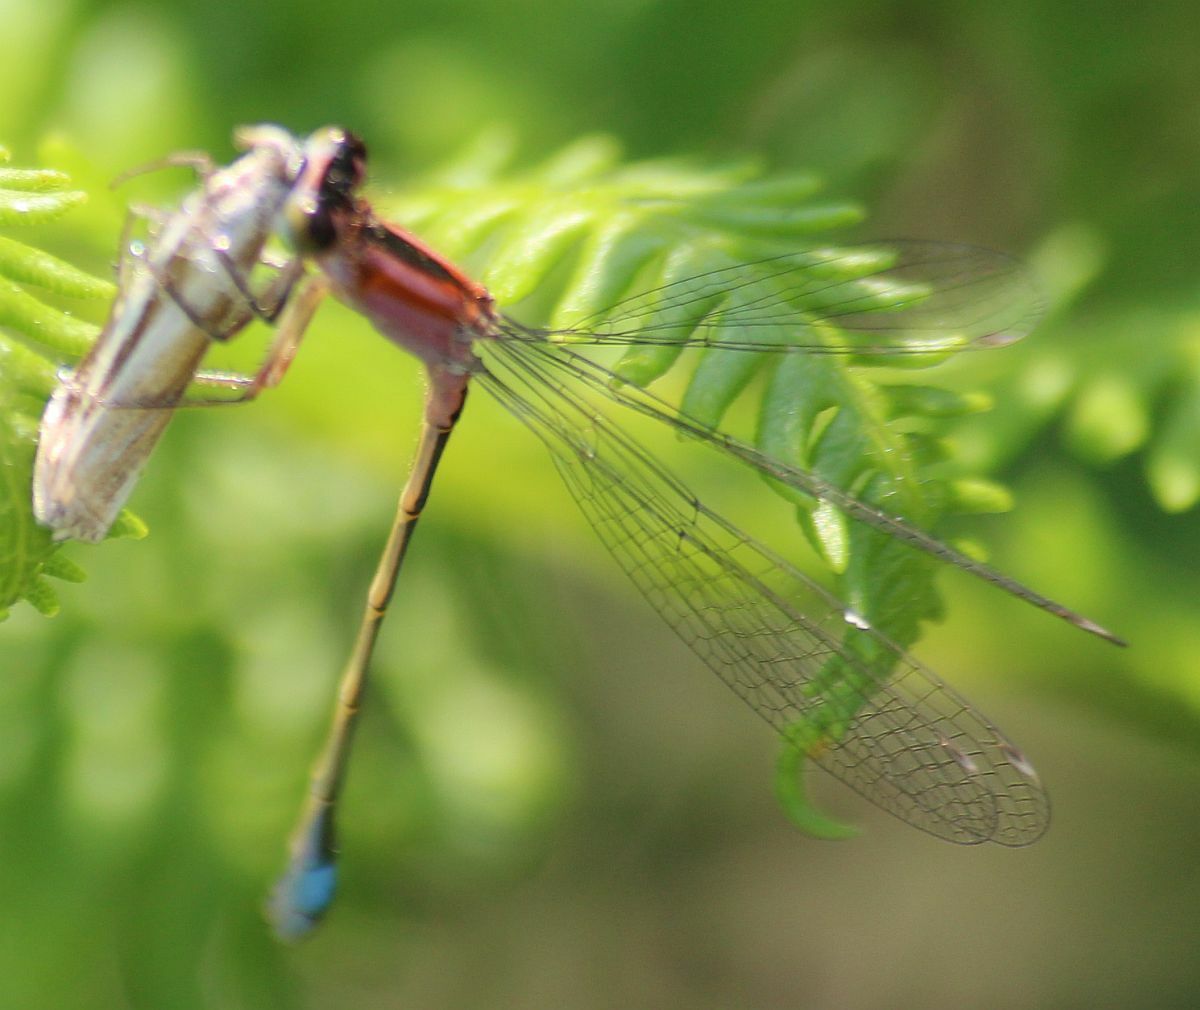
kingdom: Animalia
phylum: Arthropoda
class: Insecta
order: Odonata
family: Coenagrionidae
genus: Ischnura
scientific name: Ischnura elegans
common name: Blue-tailed damselfly
